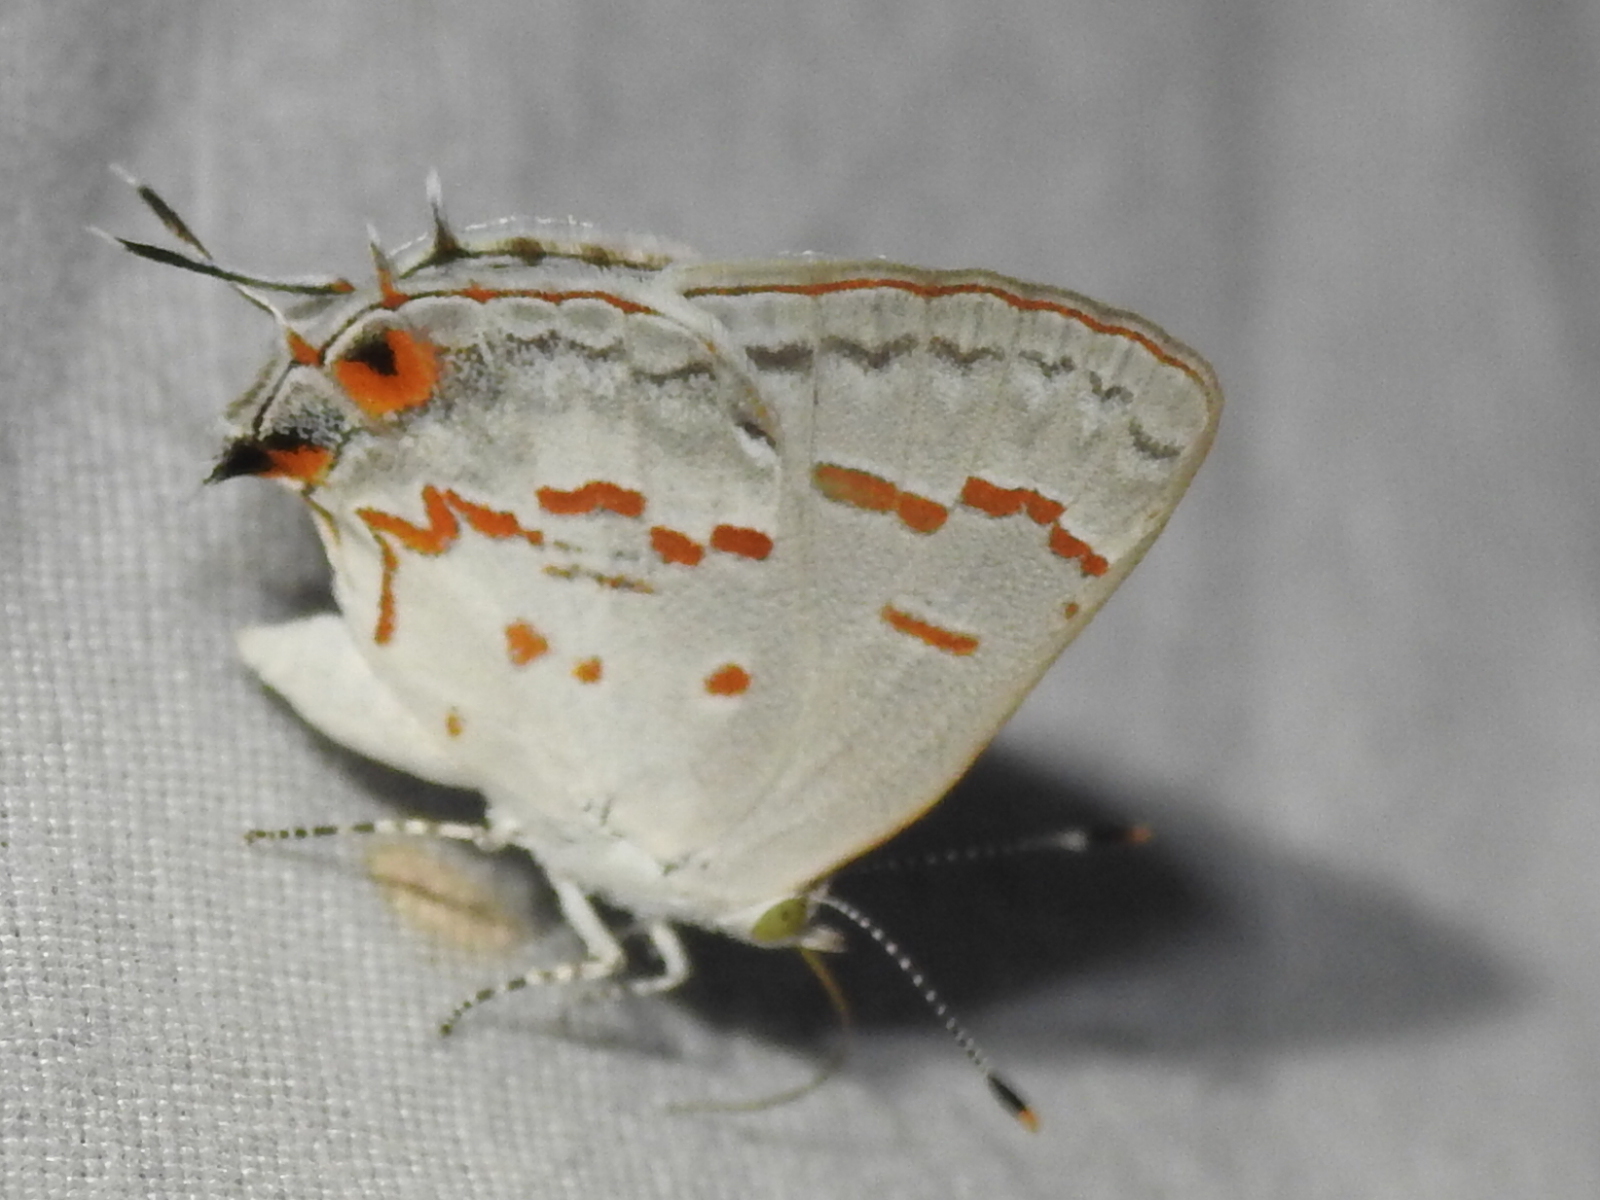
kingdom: Animalia
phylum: Arthropoda
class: Insecta
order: Lepidoptera
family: Lycaenidae
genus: Ministrymon
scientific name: Ministrymon clytie
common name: Clytie ministreak
